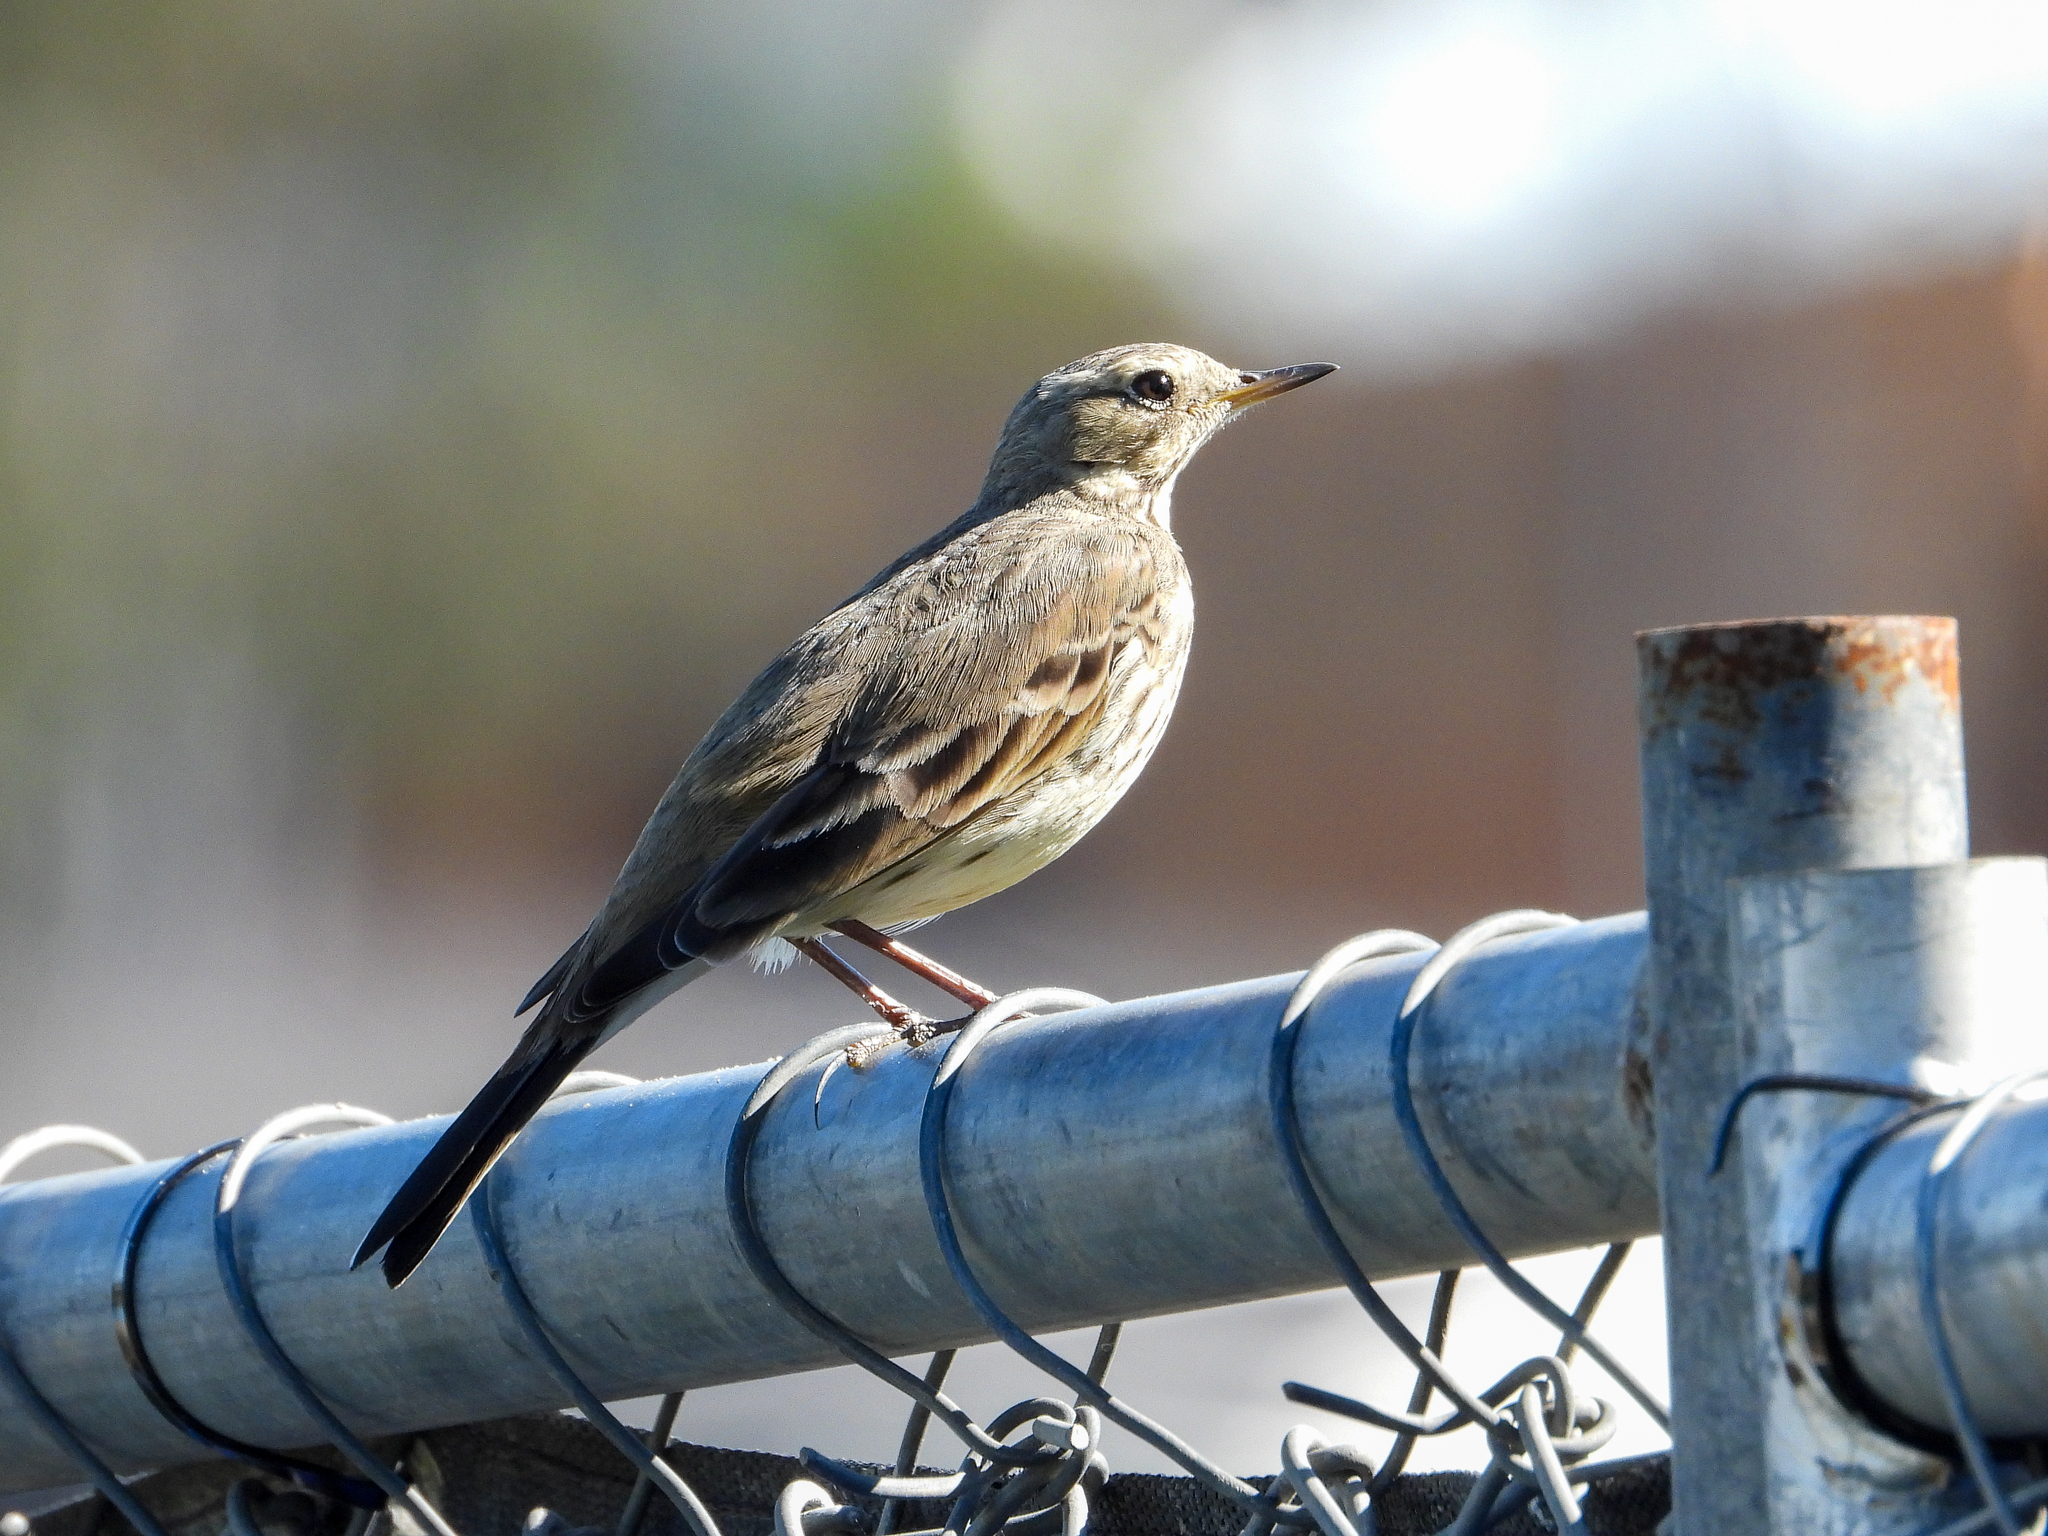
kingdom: Animalia
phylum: Chordata
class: Aves
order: Passeriformes
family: Motacillidae
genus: Anthus
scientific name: Anthus rubescens
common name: Buff-bellied pipit
